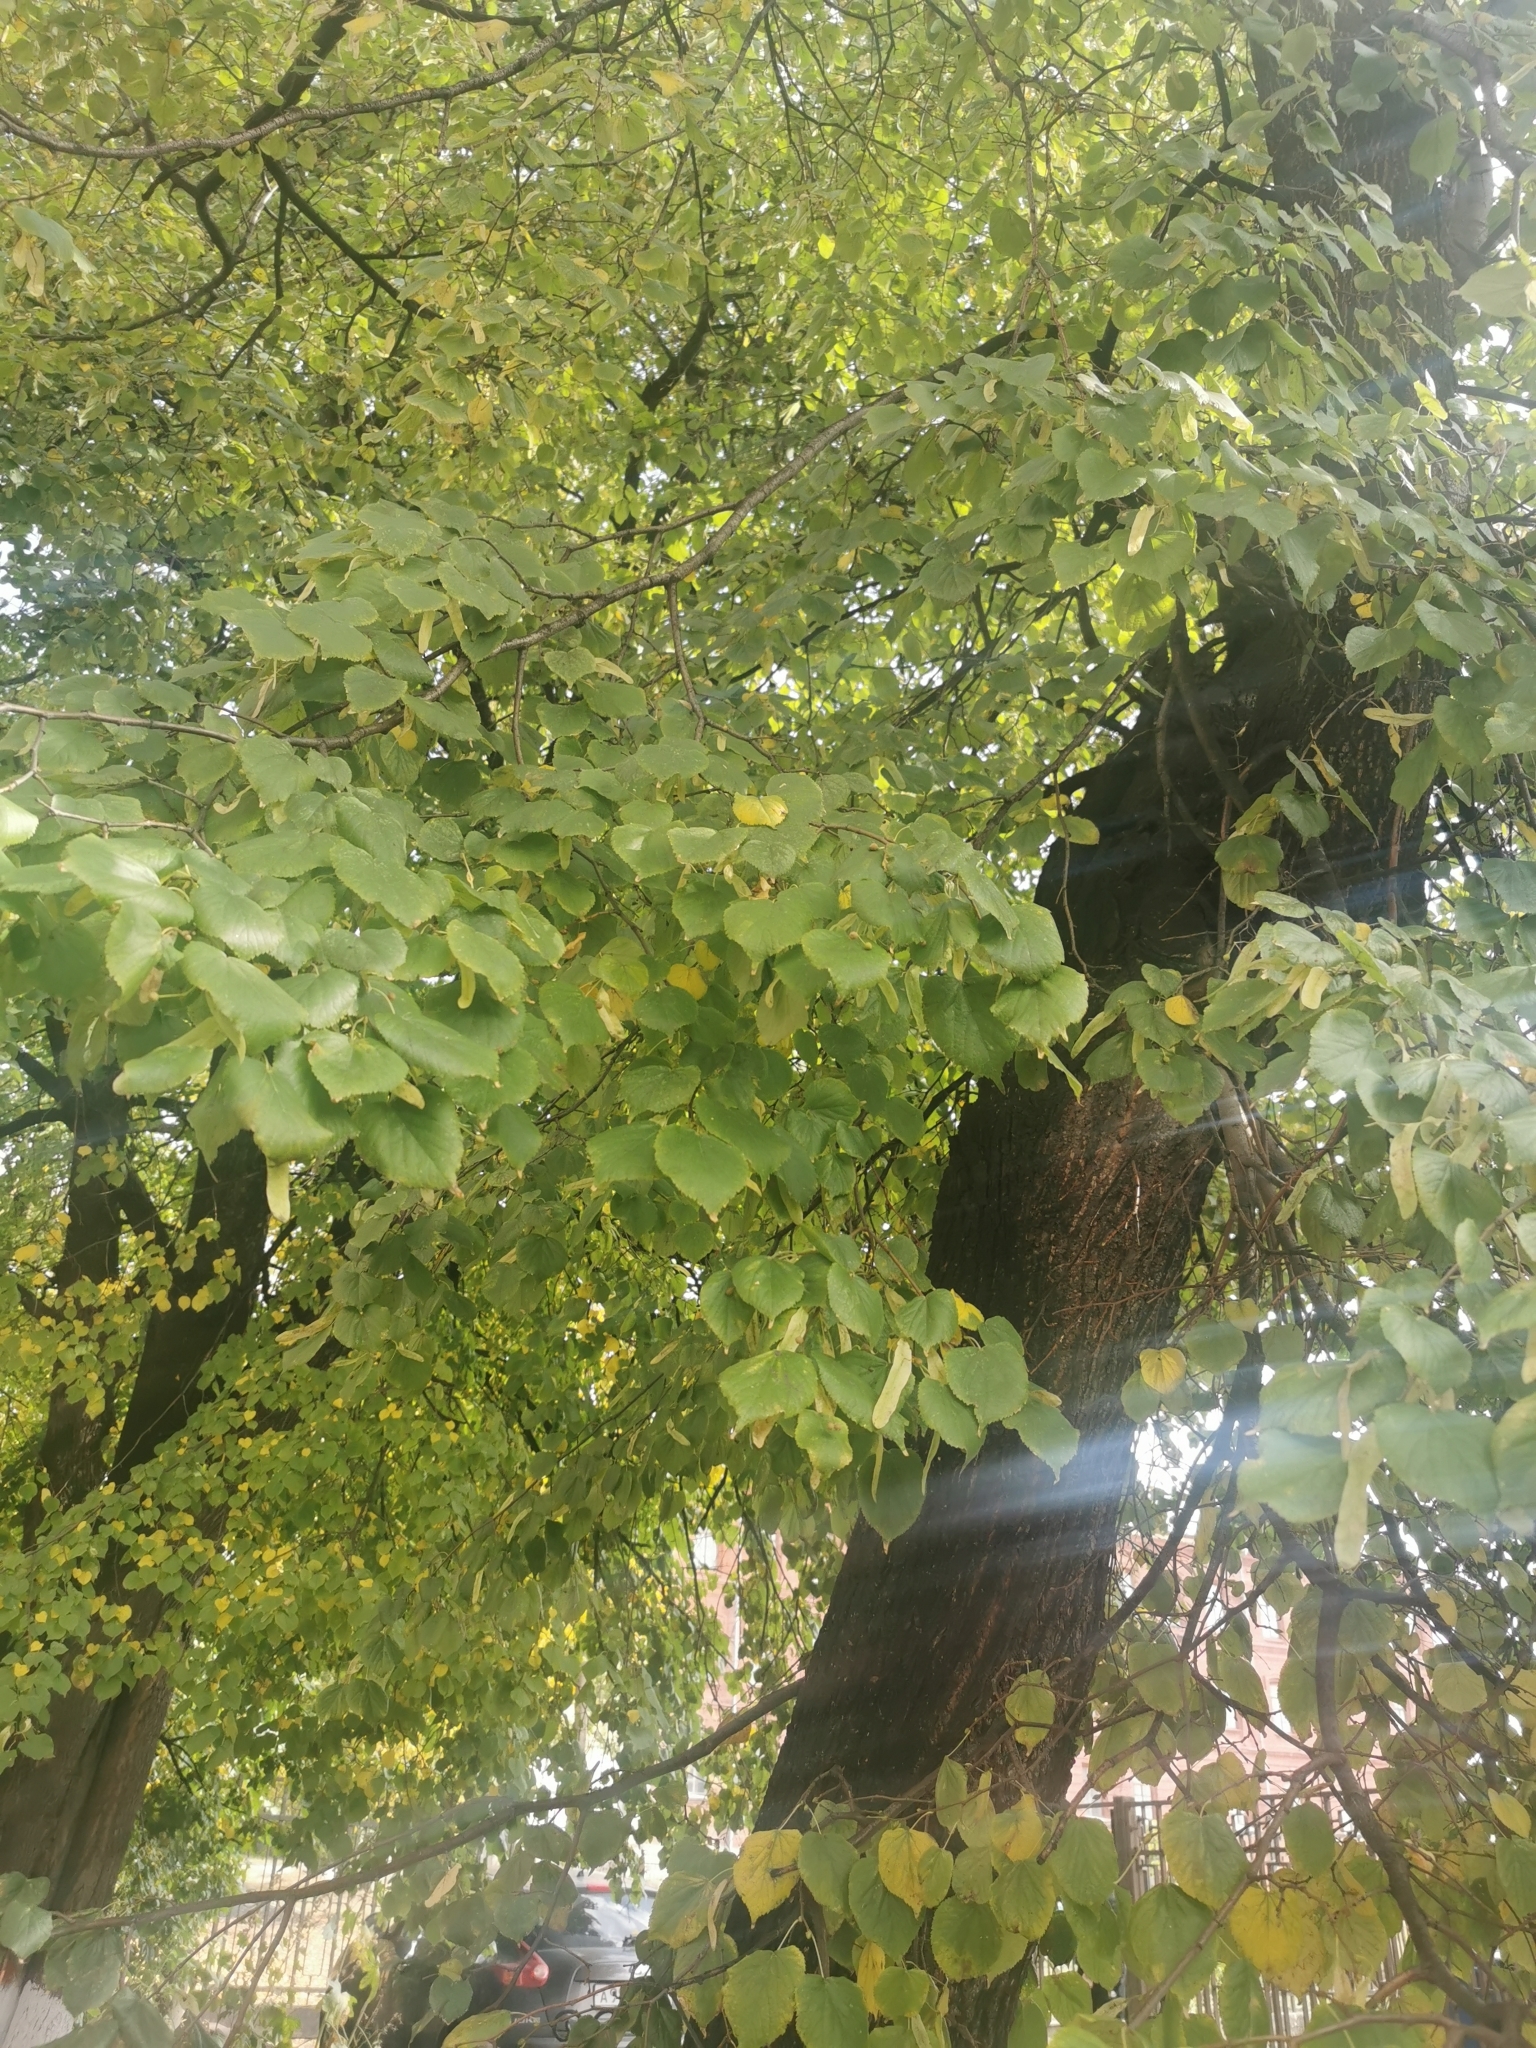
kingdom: Plantae
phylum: Tracheophyta
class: Magnoliopsida
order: Malvales
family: Malvaceae
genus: Tilia
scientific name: Tilia cordata
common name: Small-leaved lime
